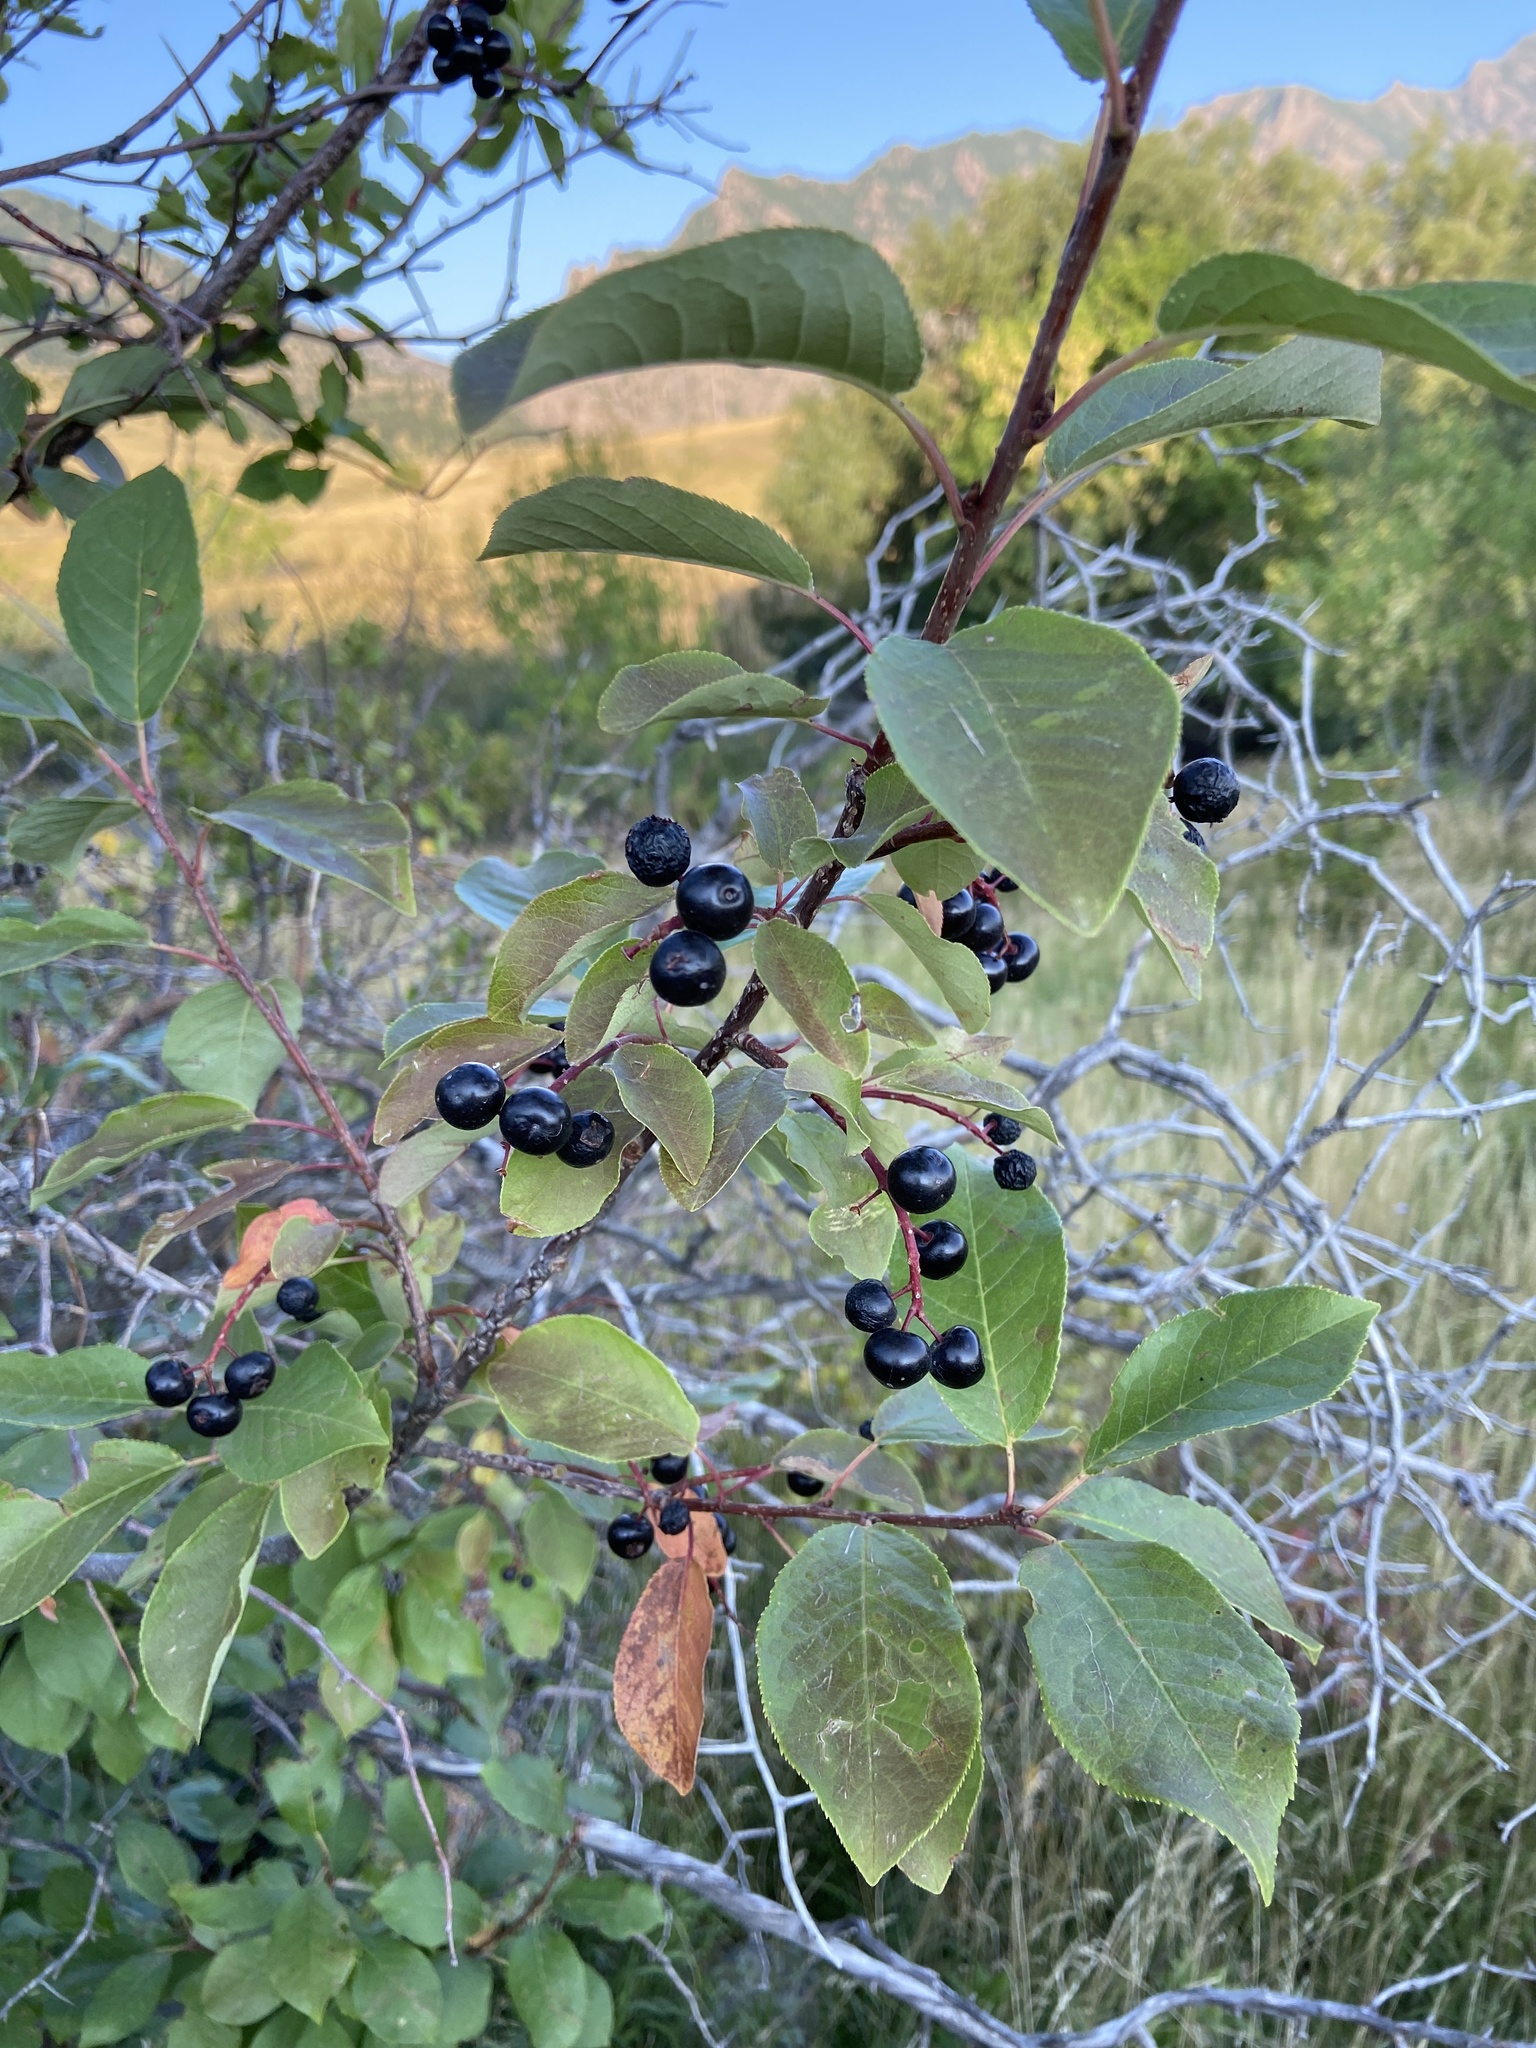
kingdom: Plantae
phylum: Tracheophyta
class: Magnoliopsida
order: Rosales
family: Rosaceae
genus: Prunus
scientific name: Prunus virginiana
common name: Chokecherry
